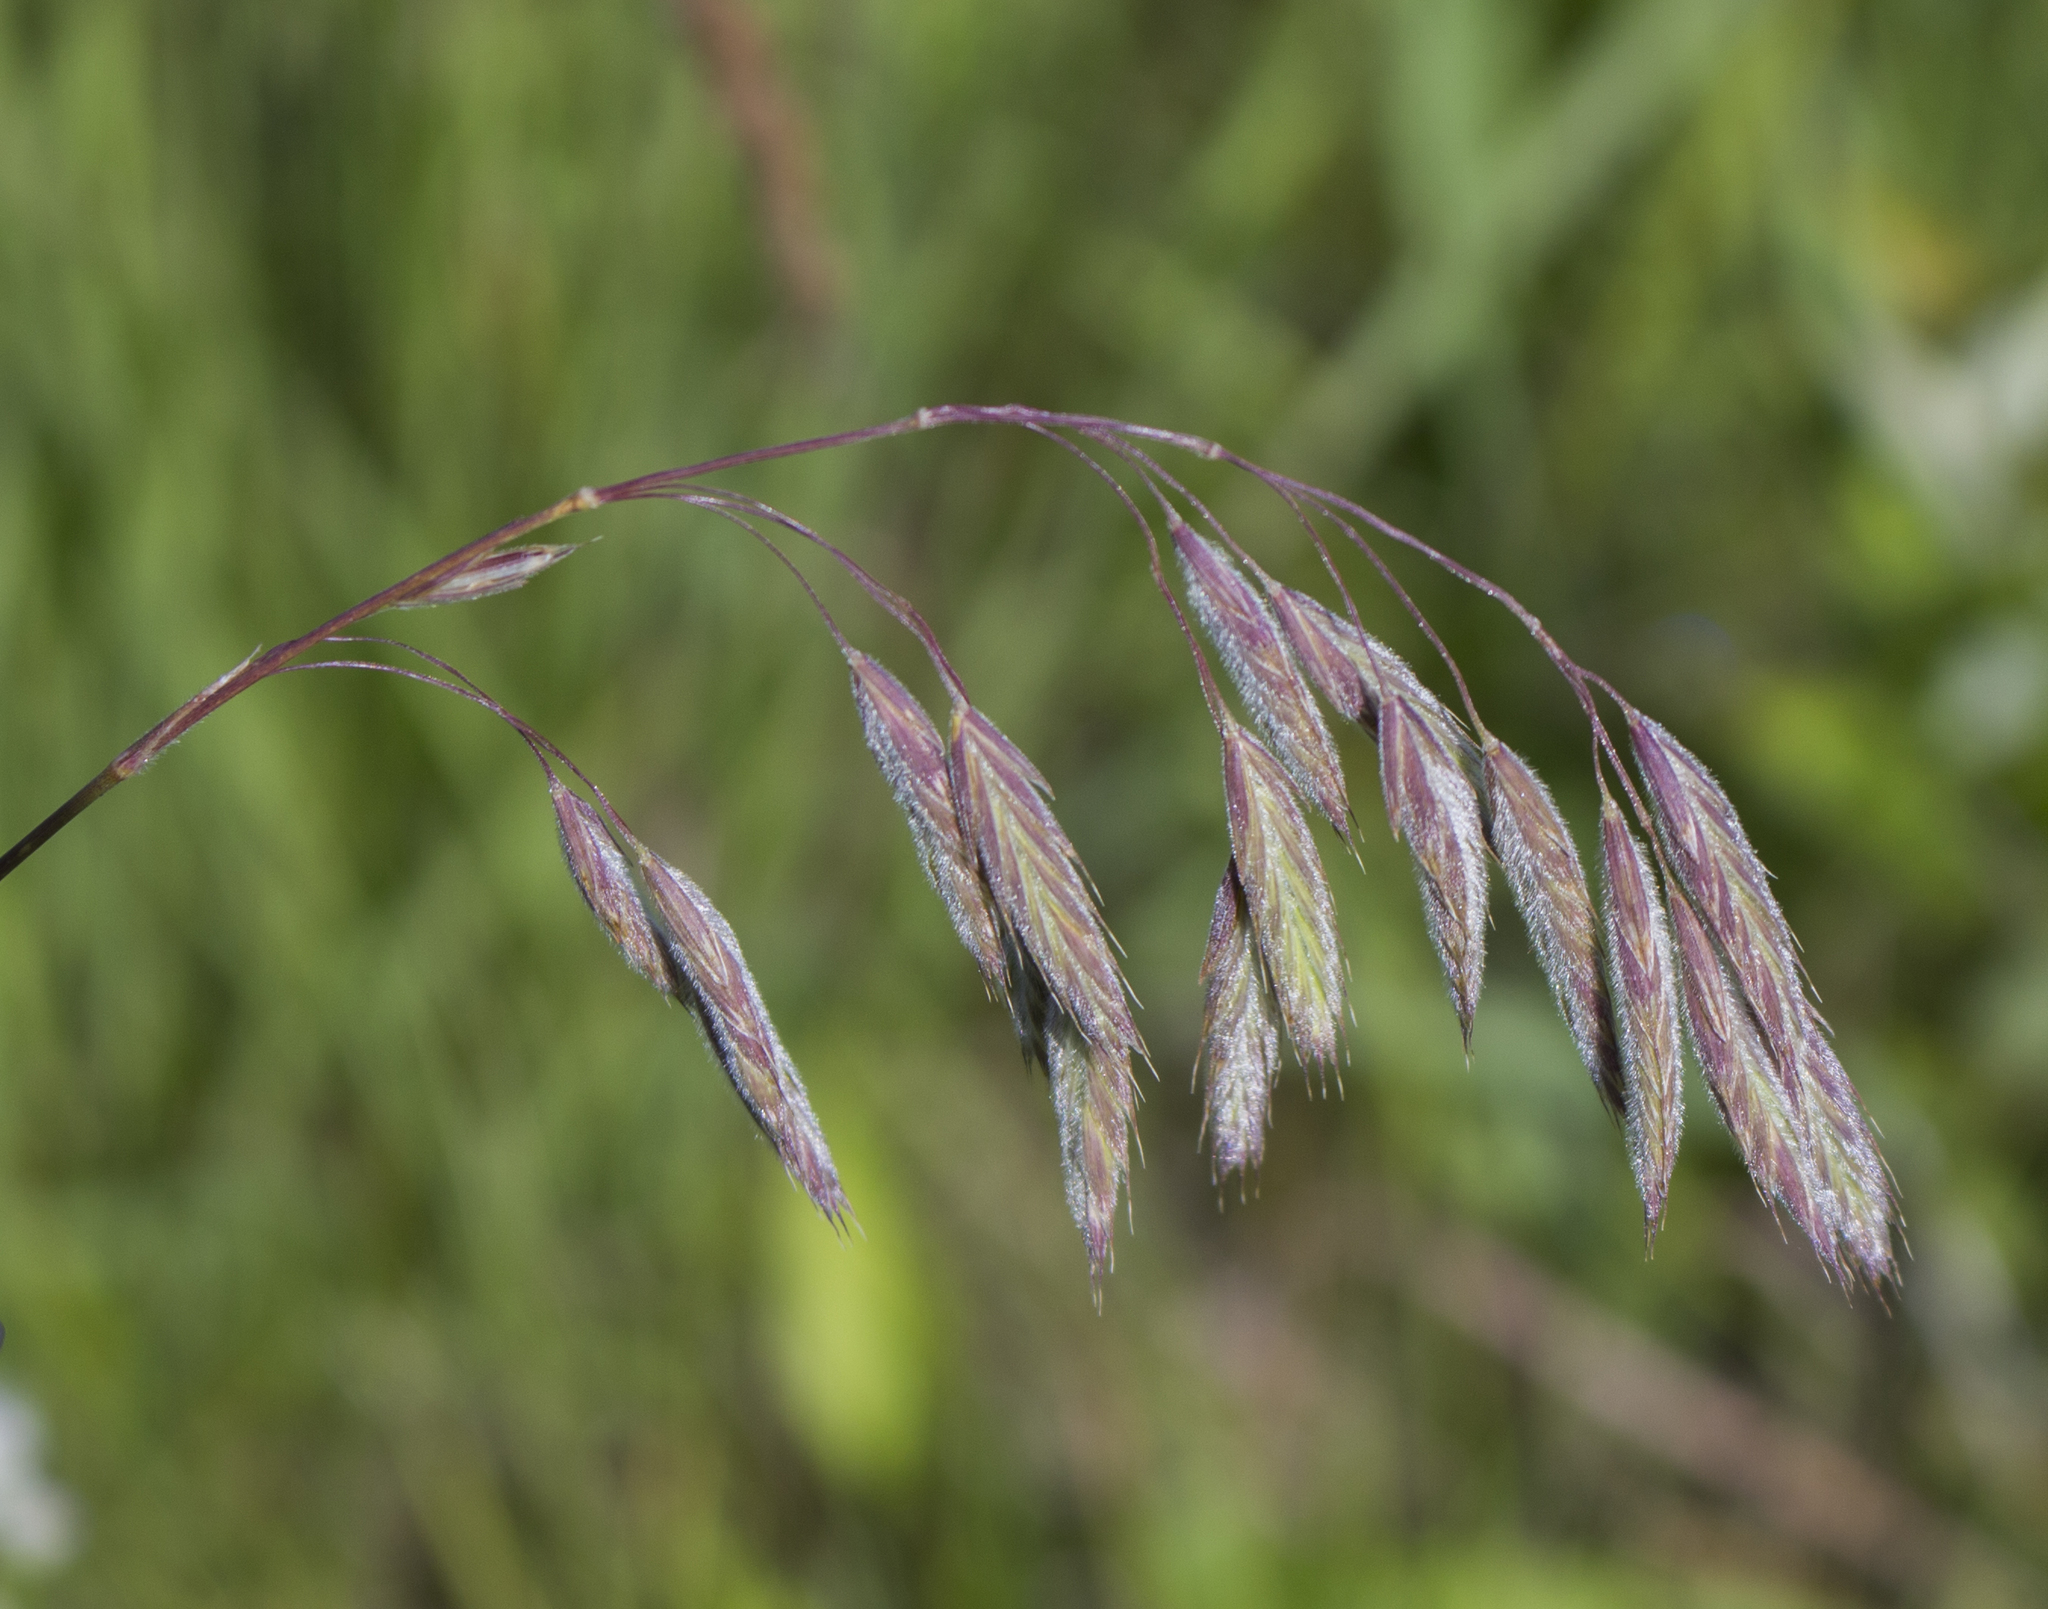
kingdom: Plantae
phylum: Tracheophyta
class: Liliopsida
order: Poales
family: Poaceae
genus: Bromus
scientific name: Bromus kalmii
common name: Kalm brome
